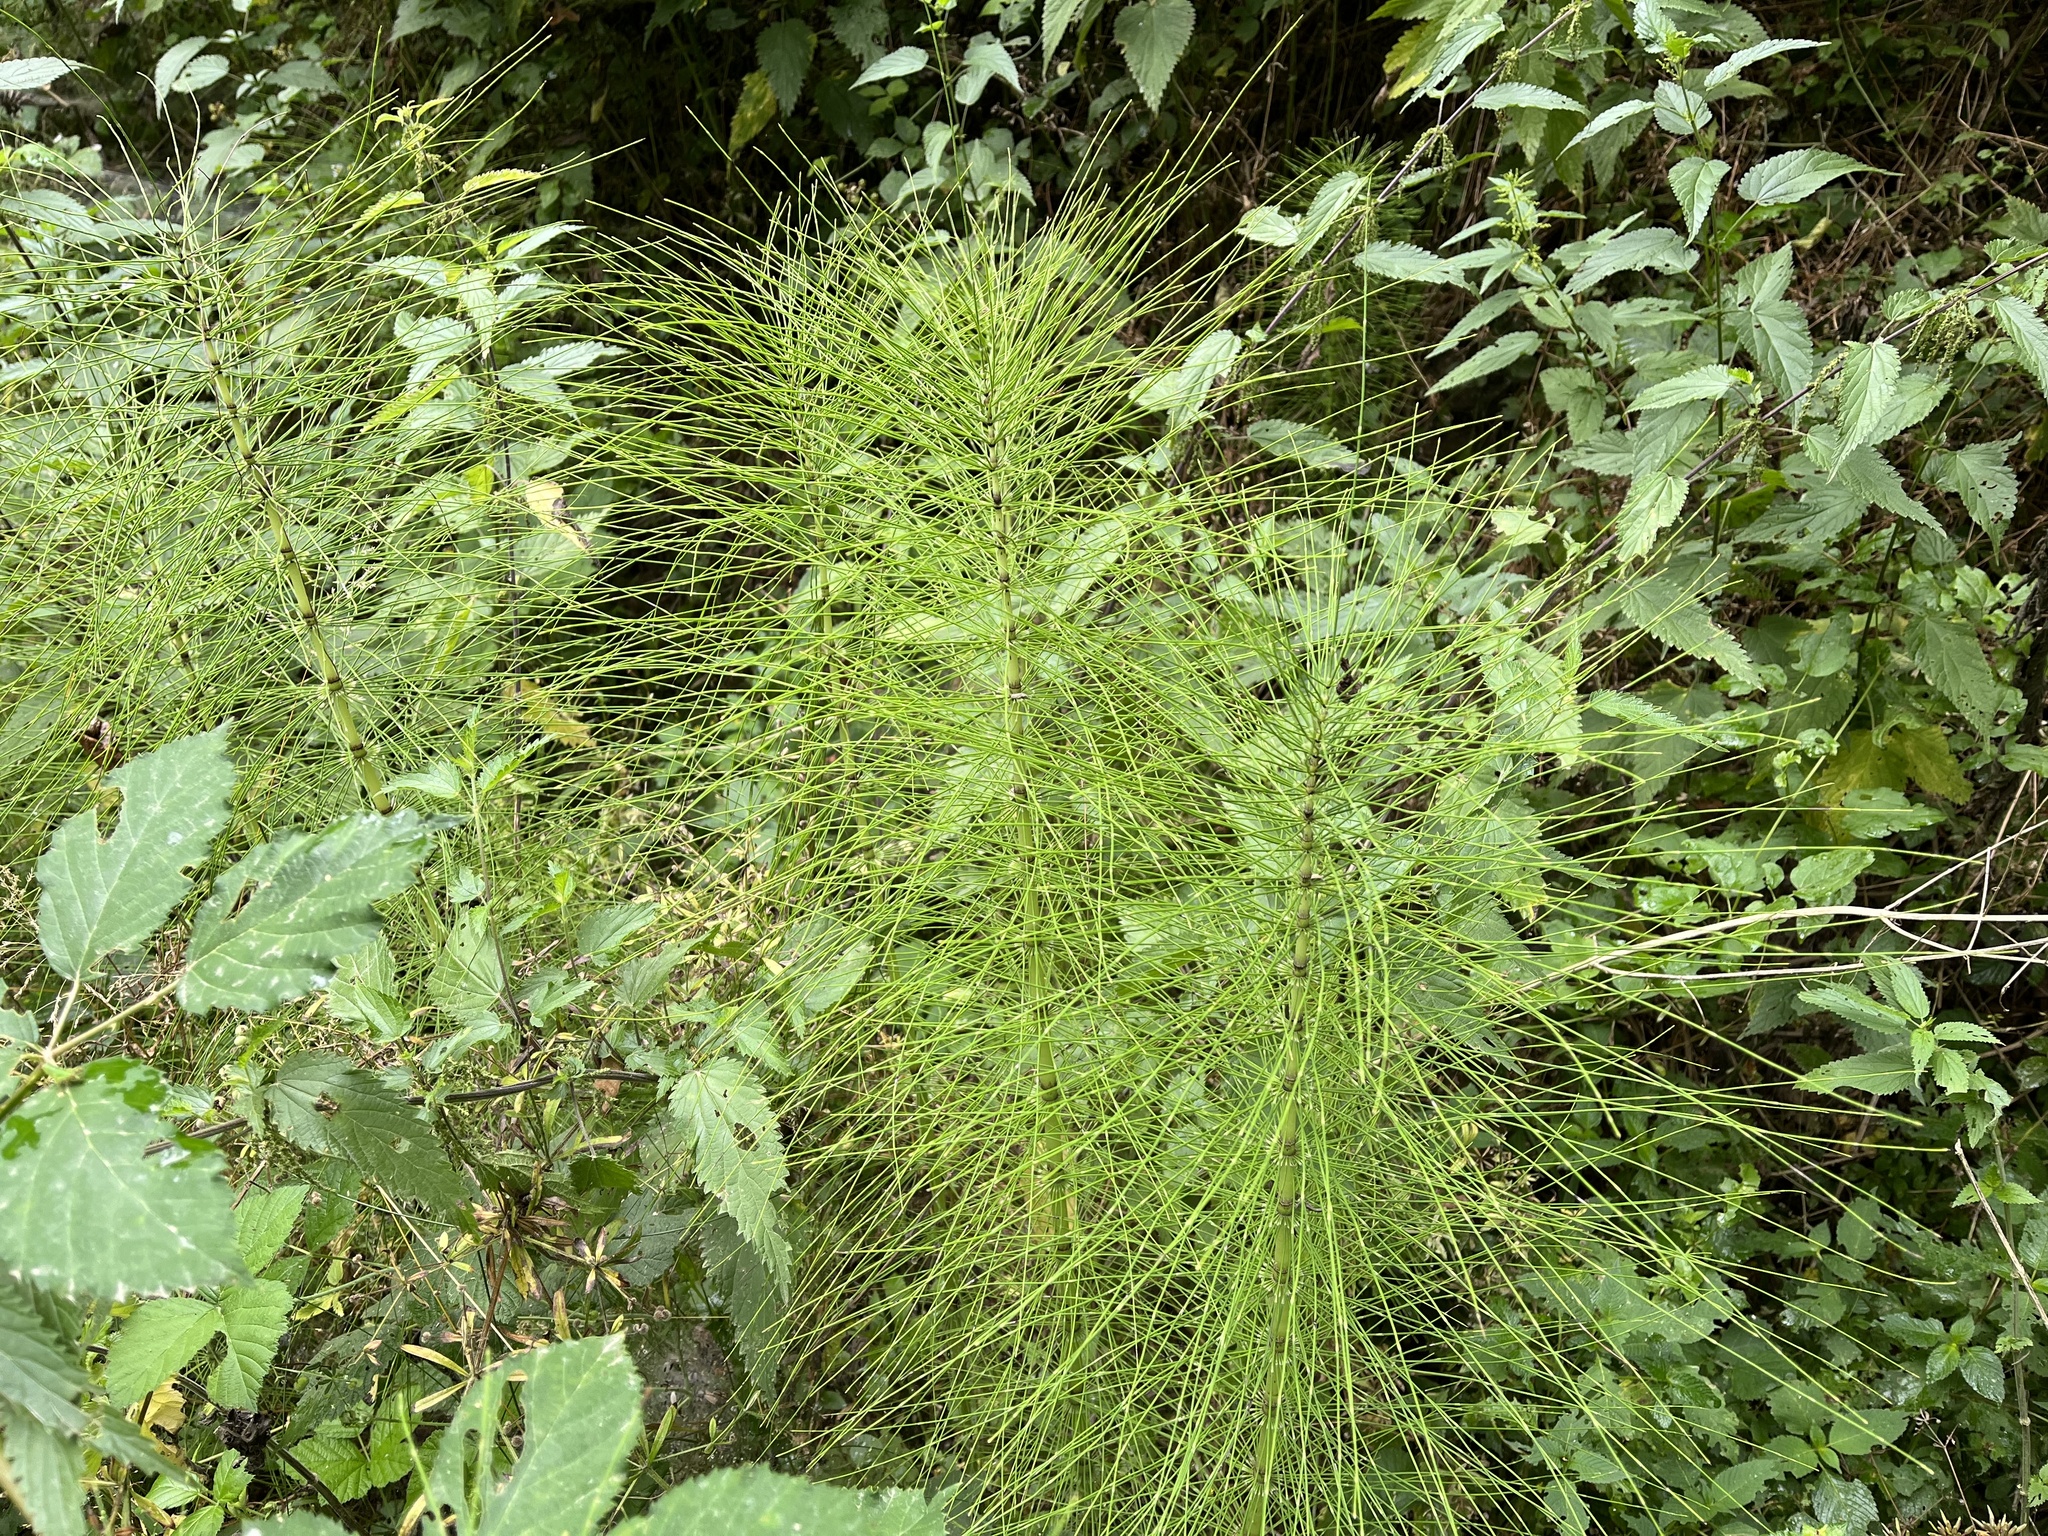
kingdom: Plantae
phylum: Tracheophyta
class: Polypodiopsida
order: Equisetales
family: Equisetaceae
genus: Equisetum
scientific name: Equisetum telmateia
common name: Great horsetail
